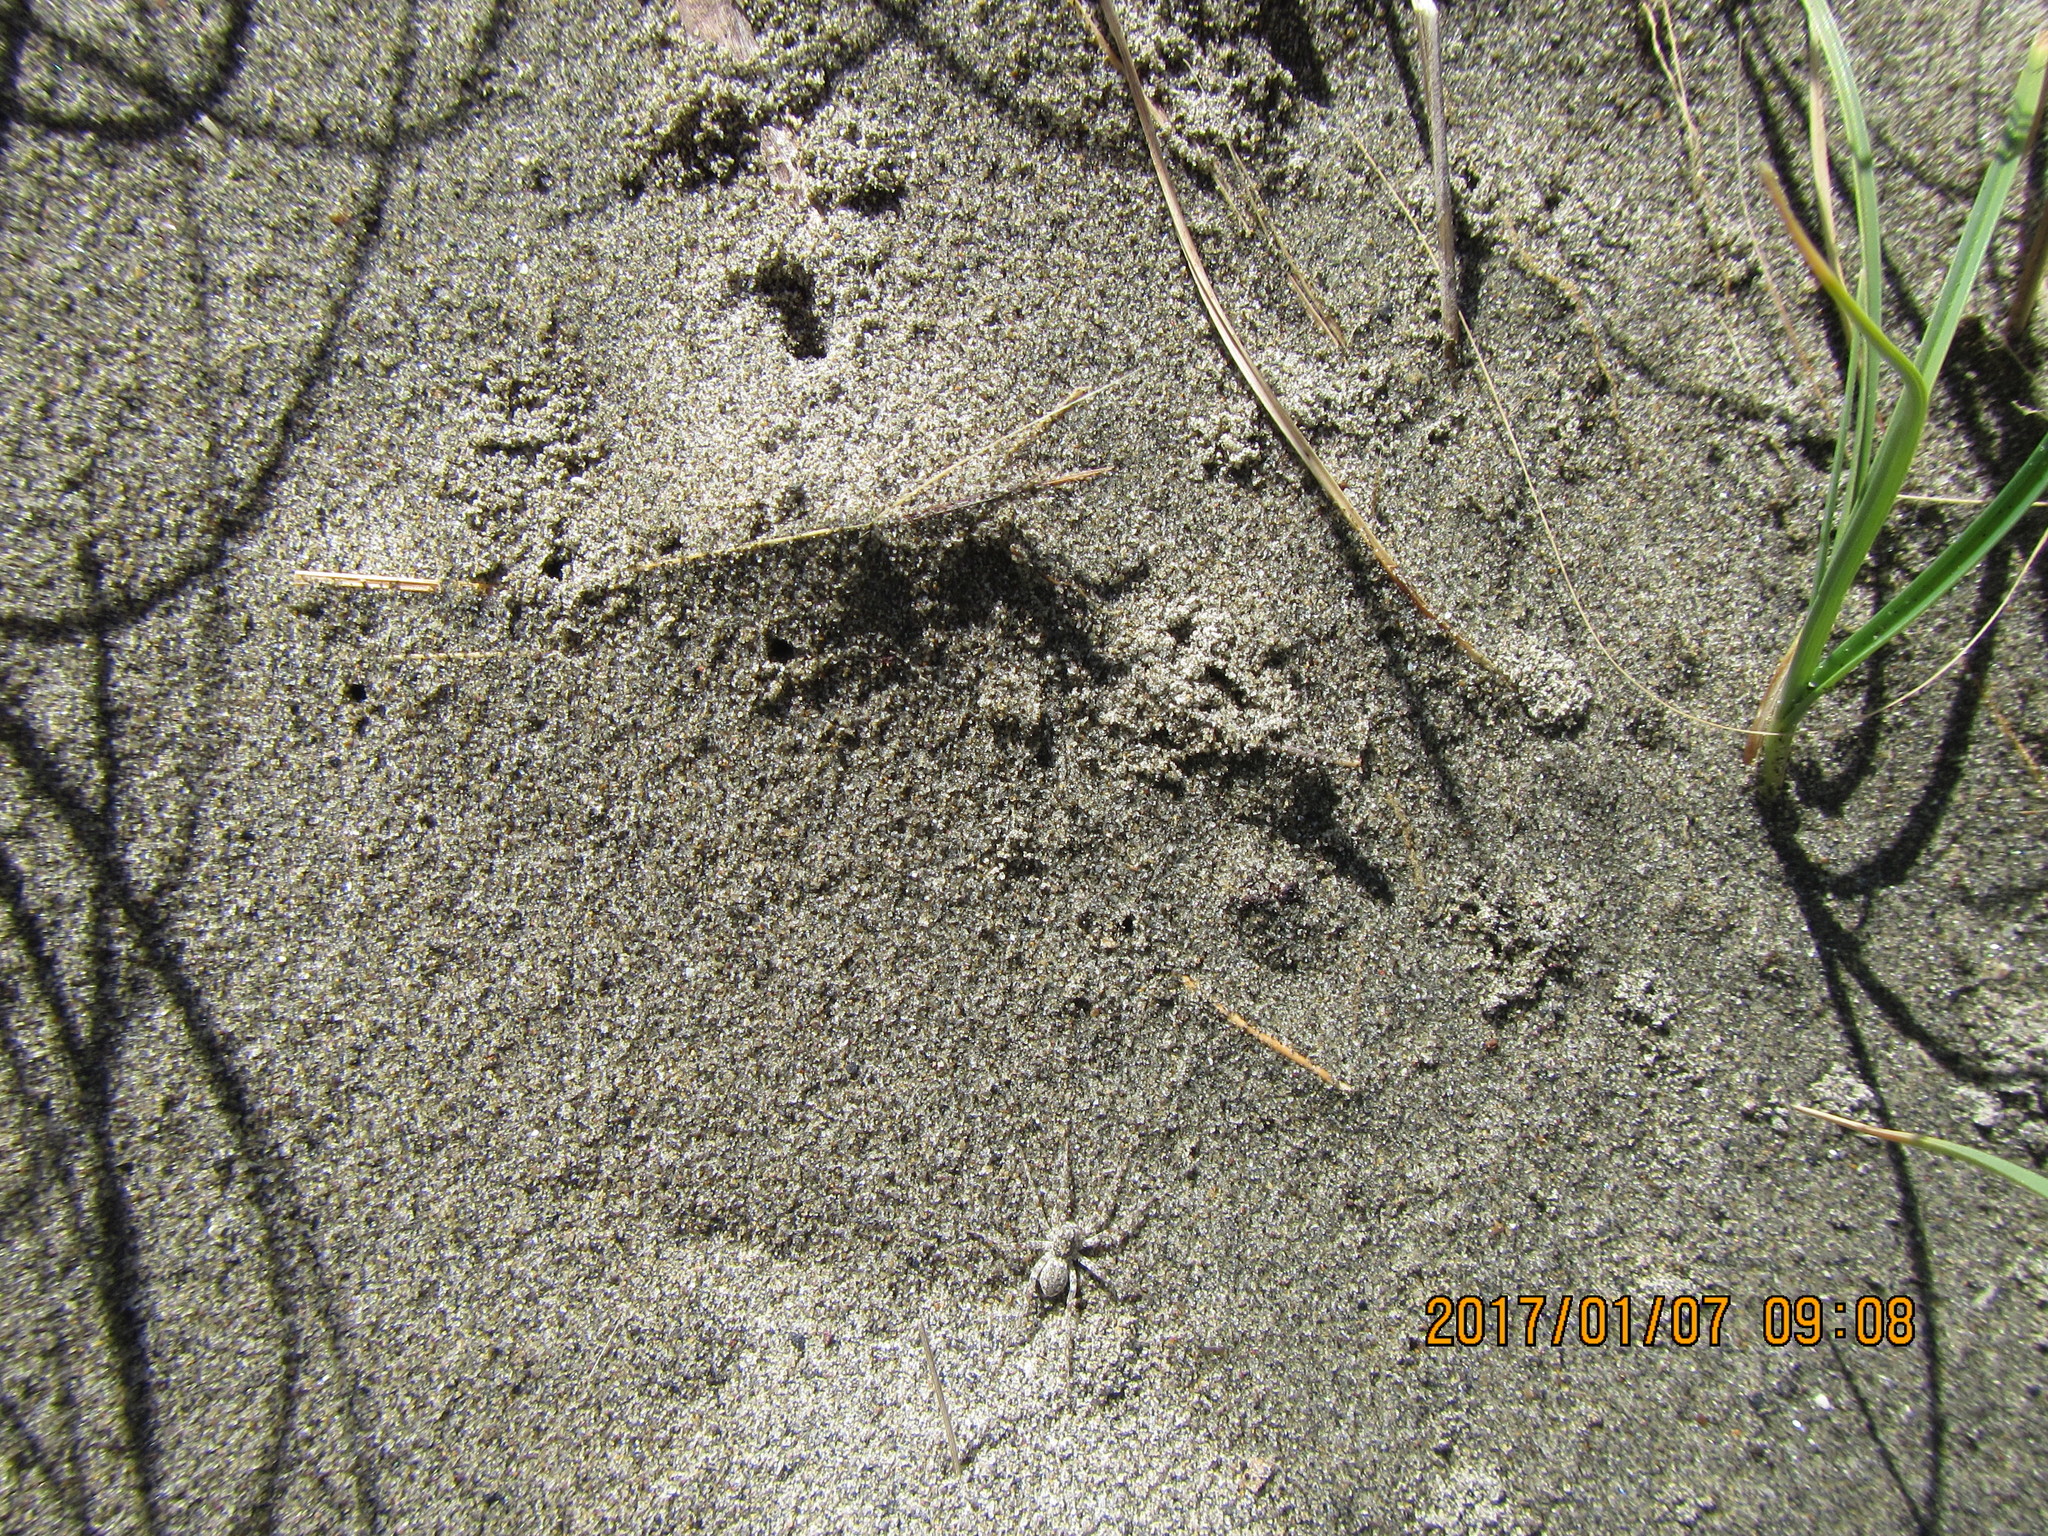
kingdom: Animalia
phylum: Arthropoda
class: Arachnida
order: Araneae
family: Lycosidae
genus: Anoteropsis
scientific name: Anoteropsis litoralis
